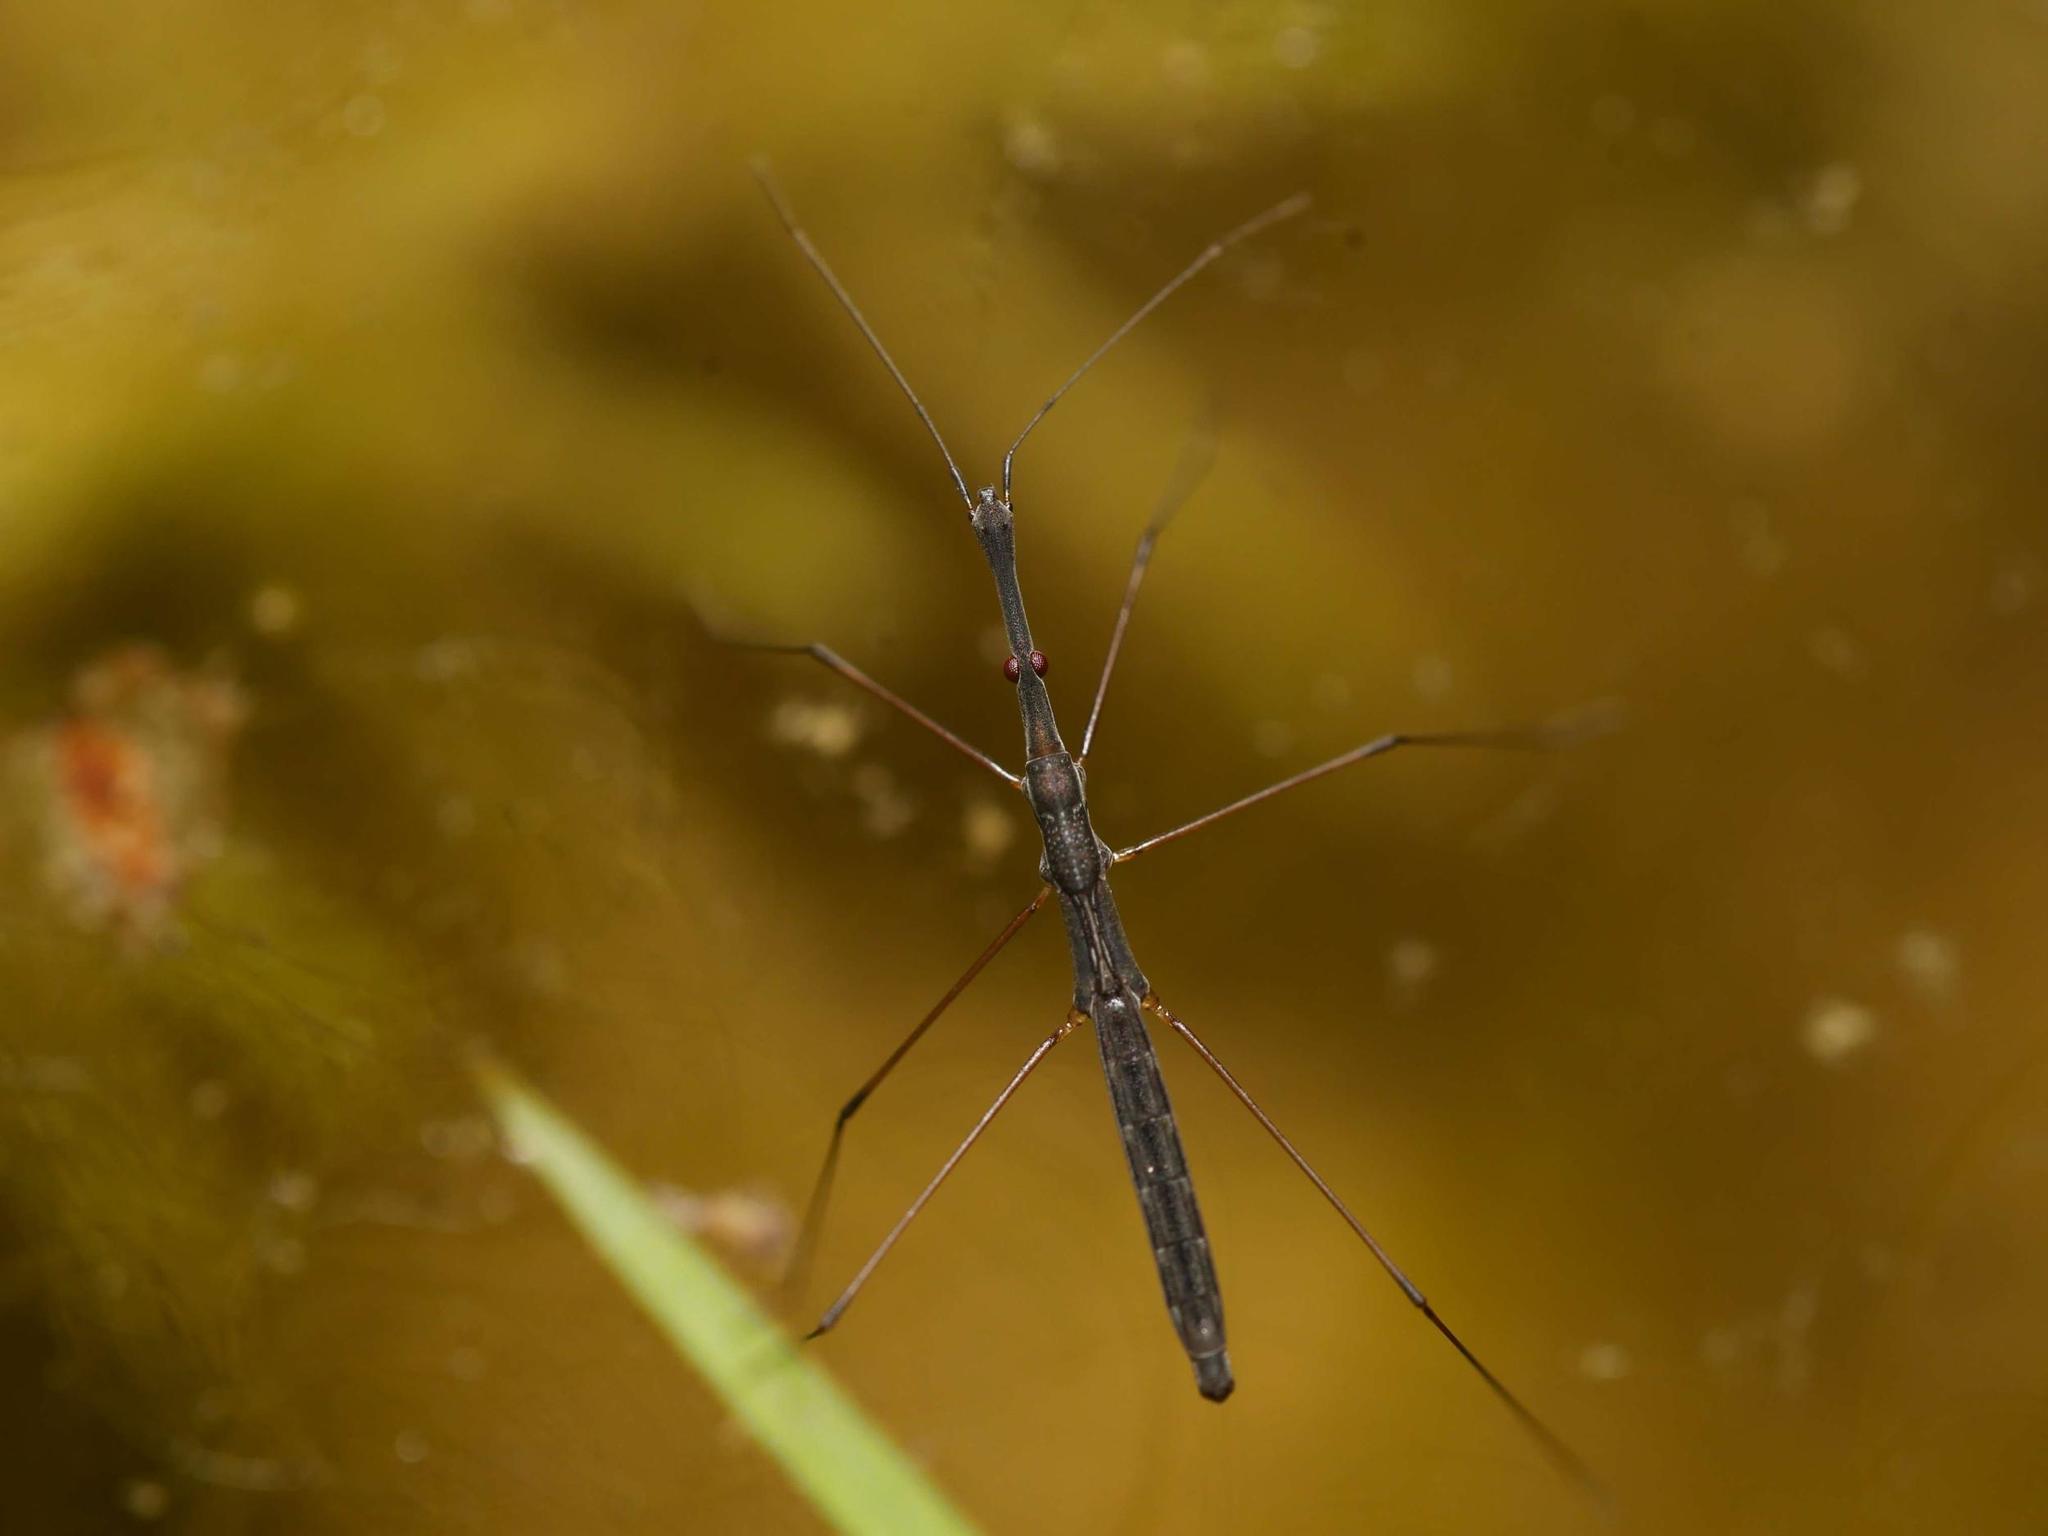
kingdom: Animalia
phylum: Arthropoda
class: Insecta
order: Hemiptera
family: Hydrometridae
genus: Hydrometra
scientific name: Hydrometra stagnorum
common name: Water measurer
